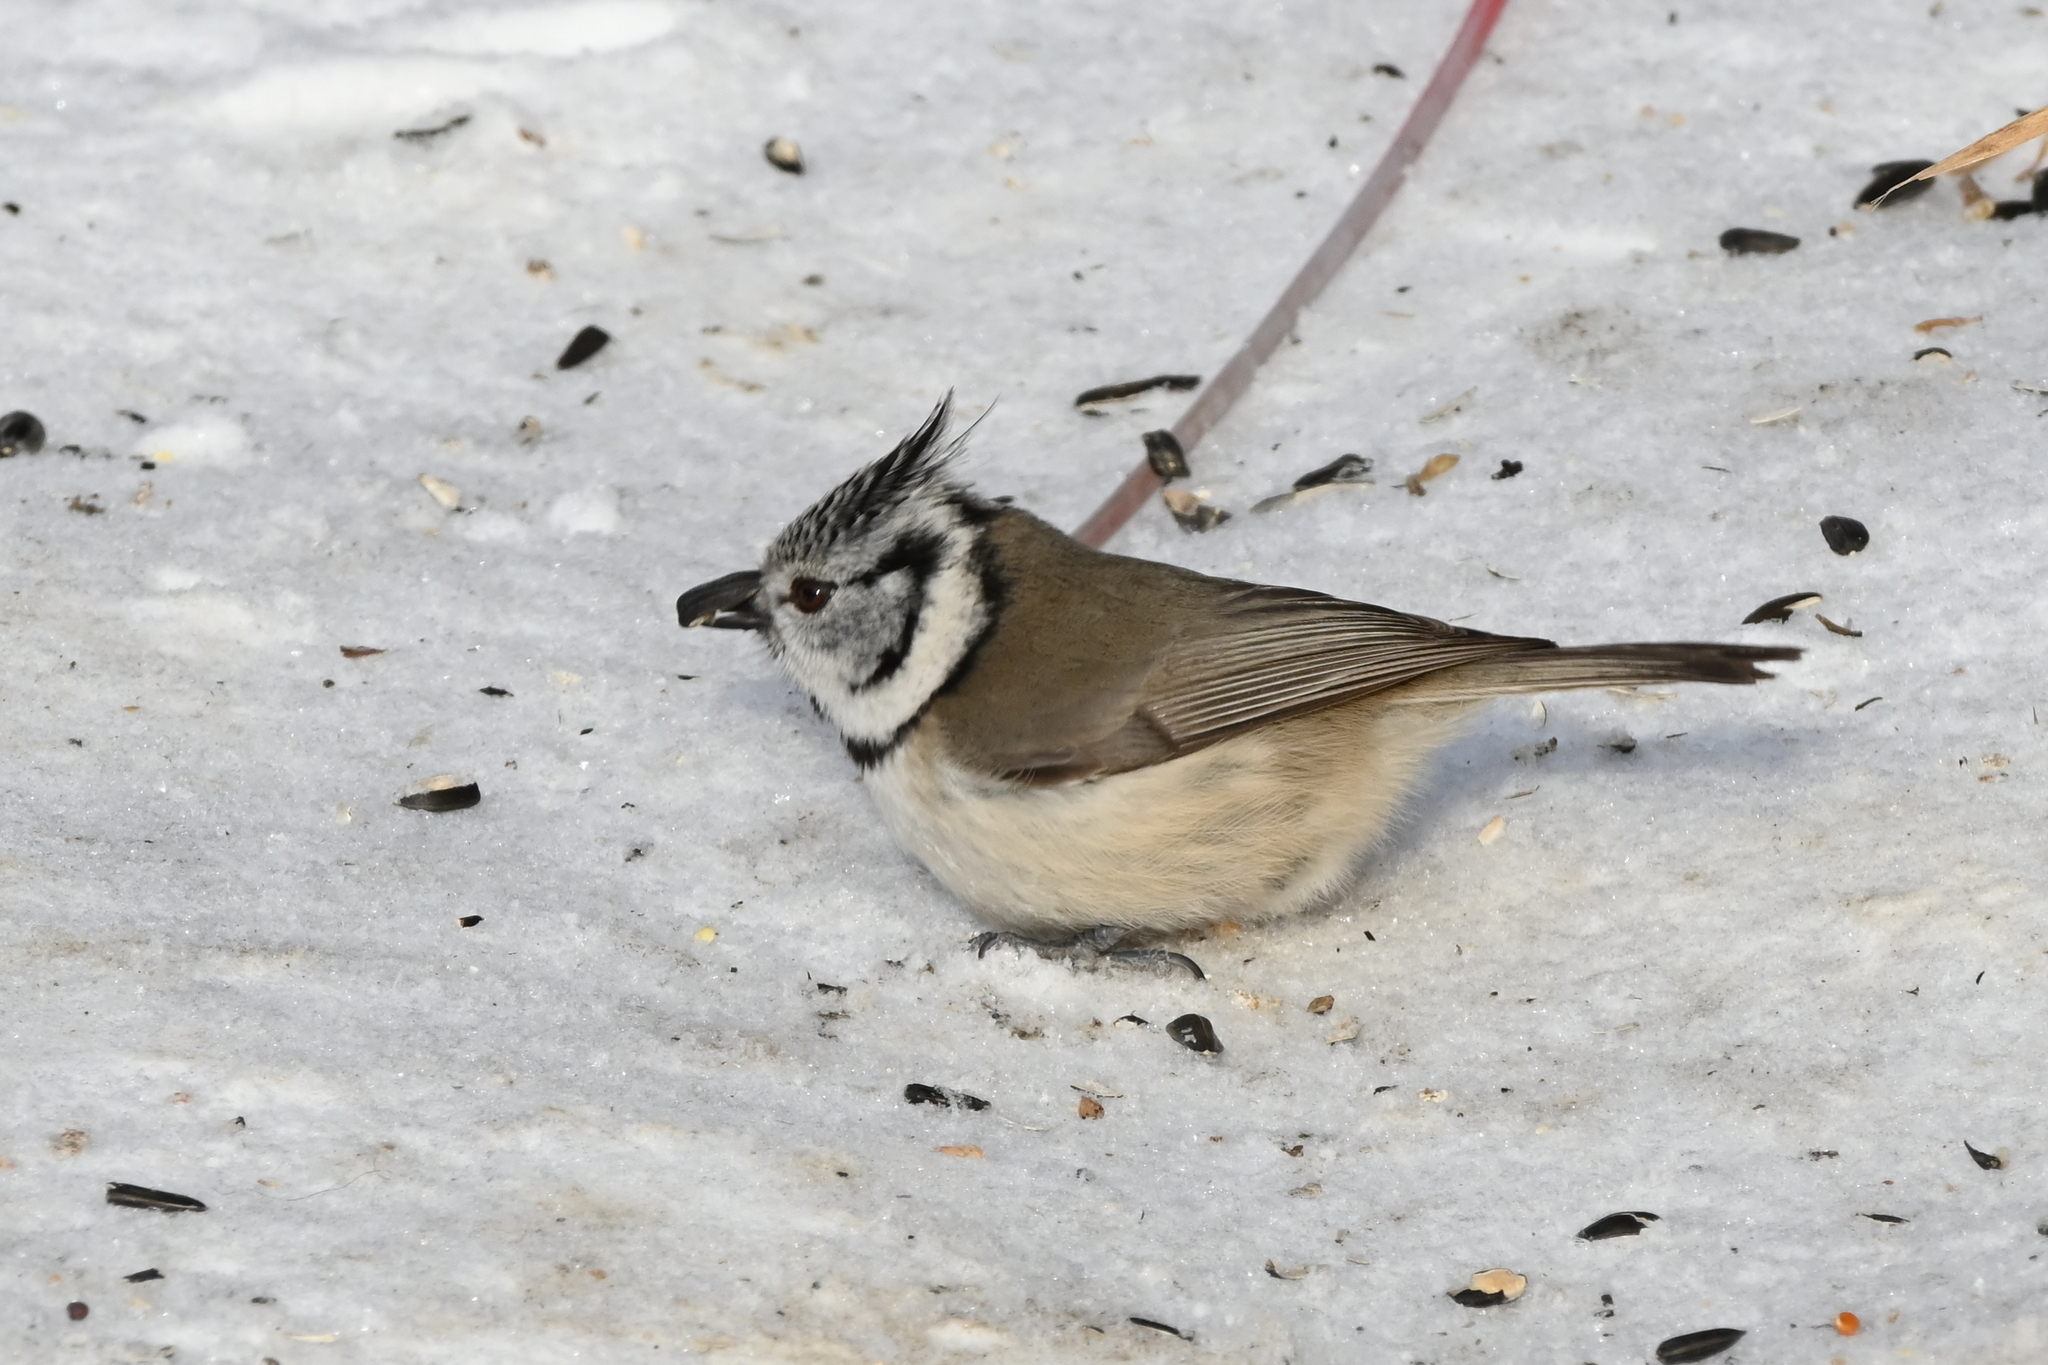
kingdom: Animalia
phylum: Chordata
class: Aves
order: Passeriformes
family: Paridae
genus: Lophophanes
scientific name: Lophophanes cristatus
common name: European crested tit
